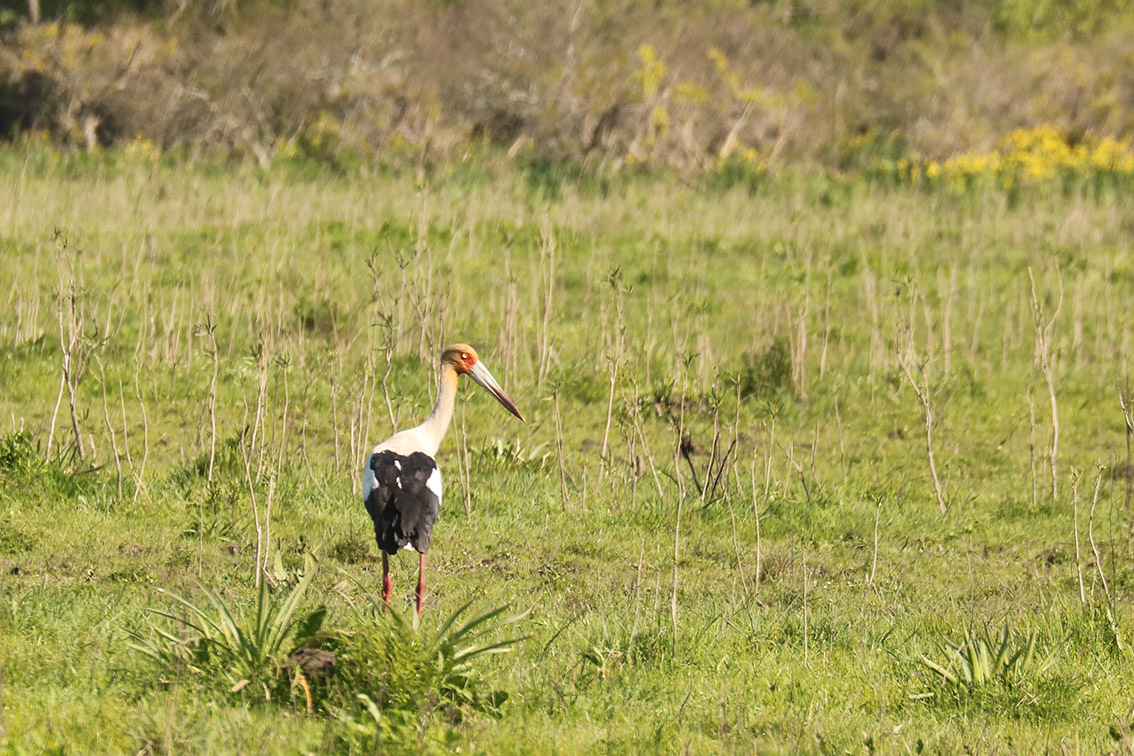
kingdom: Animalia
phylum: Chordata
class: Aves
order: Ciconiiformes
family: Ciconiidae
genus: Ciconia
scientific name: Ciconia maguari
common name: Maguari stork
